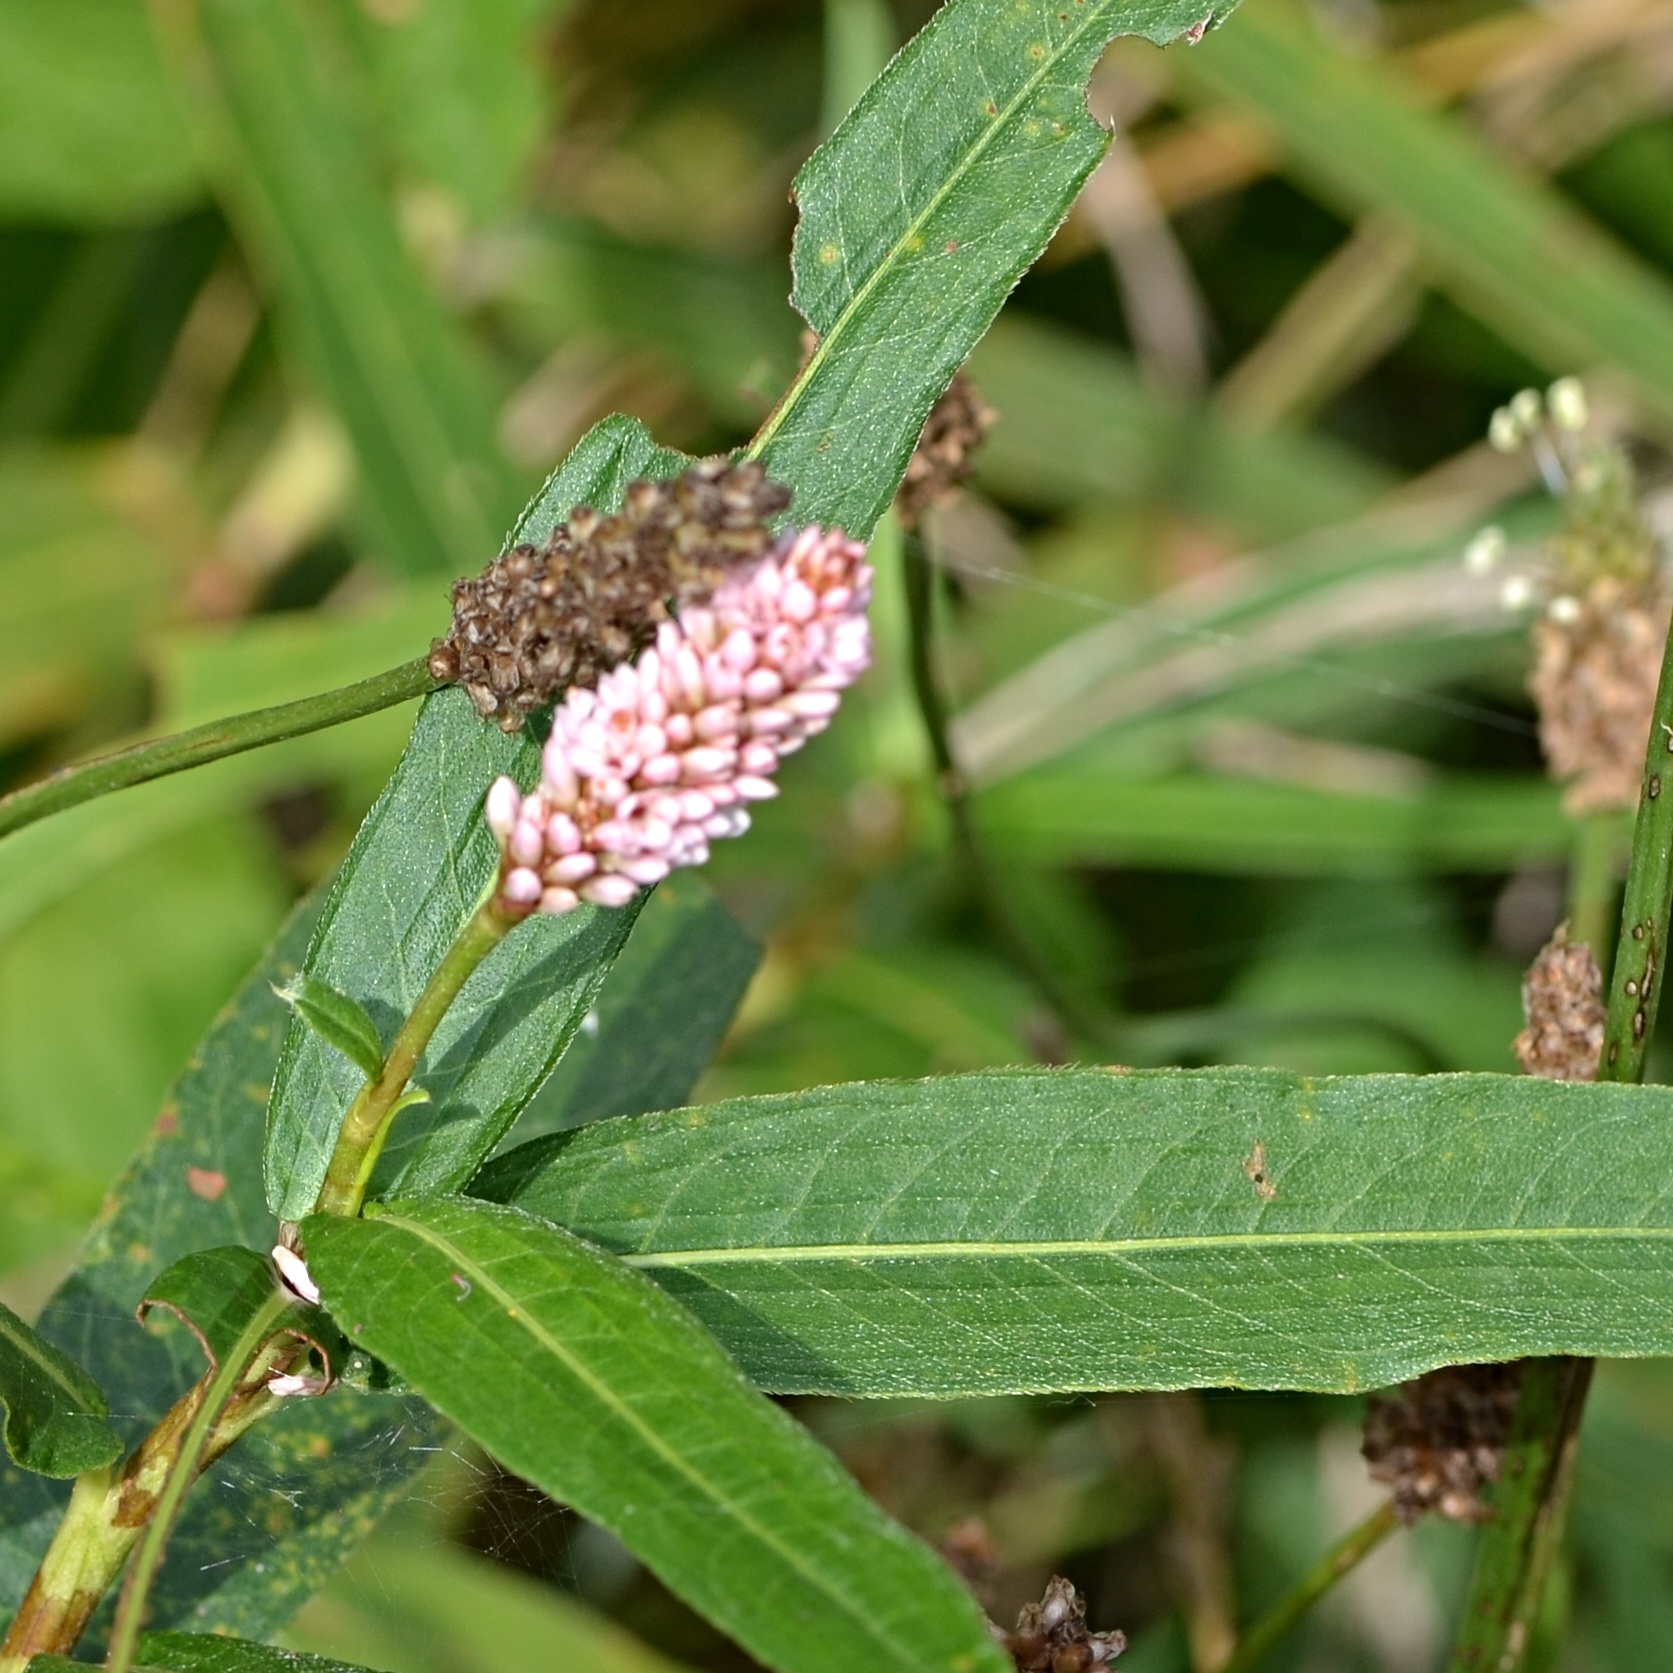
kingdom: Plantae
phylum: Tracheophyta
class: Magnoliopsida
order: Caryophyllales
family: Polygonaceae
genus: Persicaria
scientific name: Persicaria amphibia
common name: Amphibious bistort
